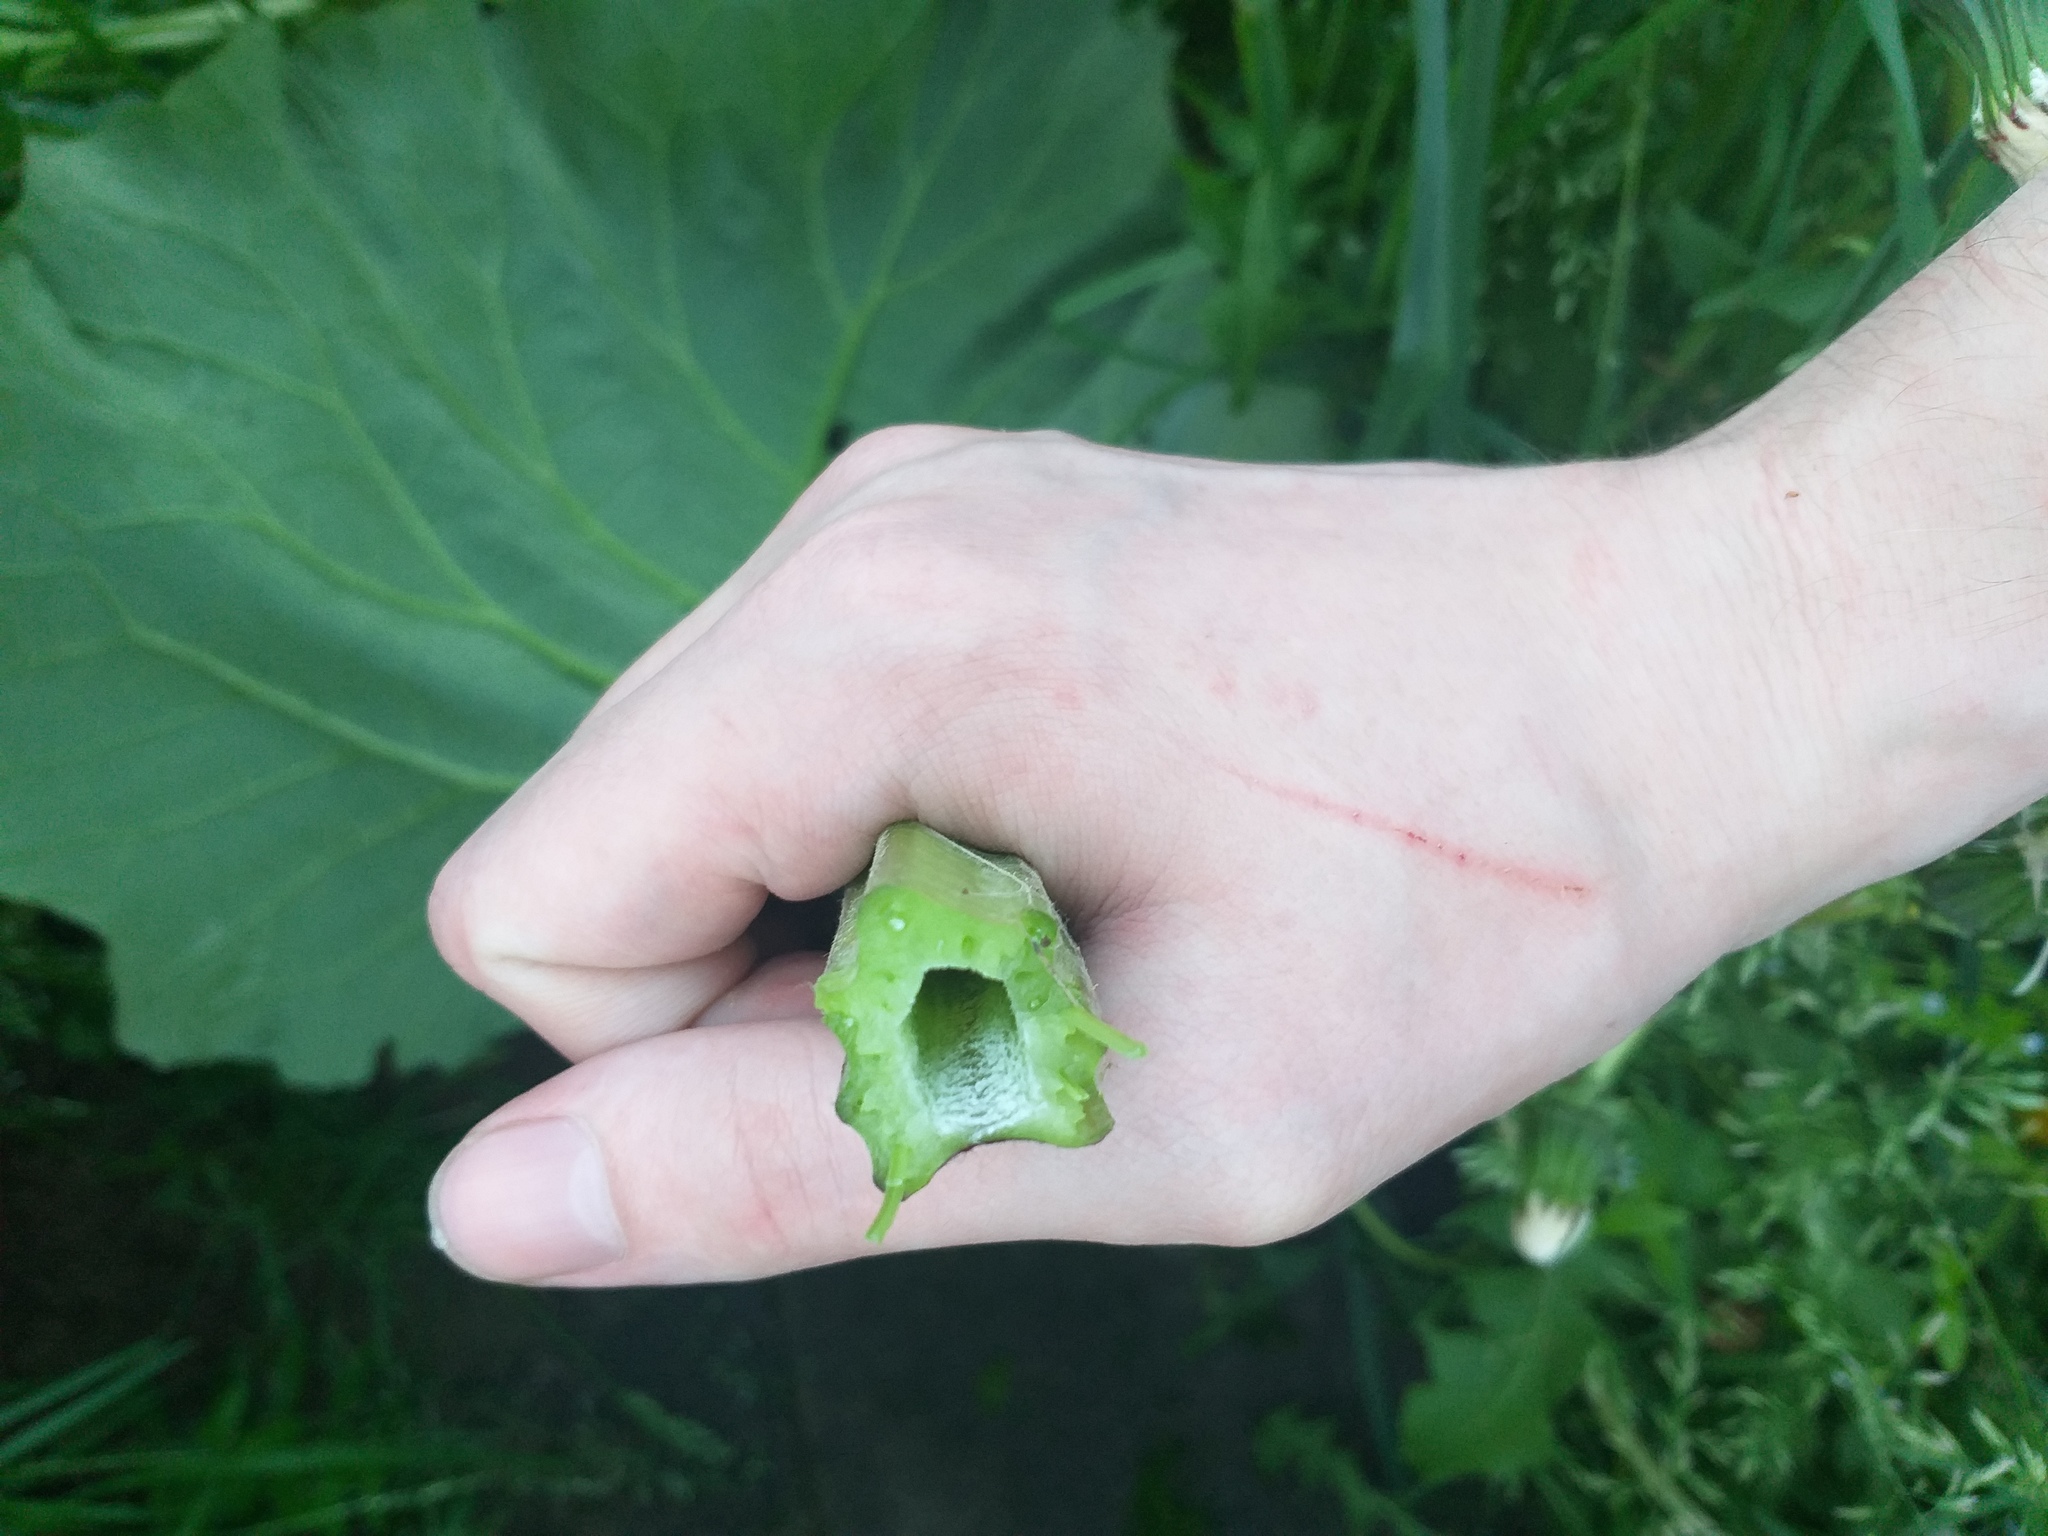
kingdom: Plantae
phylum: Tracheophyta
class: Magnoliopsida
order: Asterales
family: Asteraceae
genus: Arctium
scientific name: Arctium minus
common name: Lesser burdock
